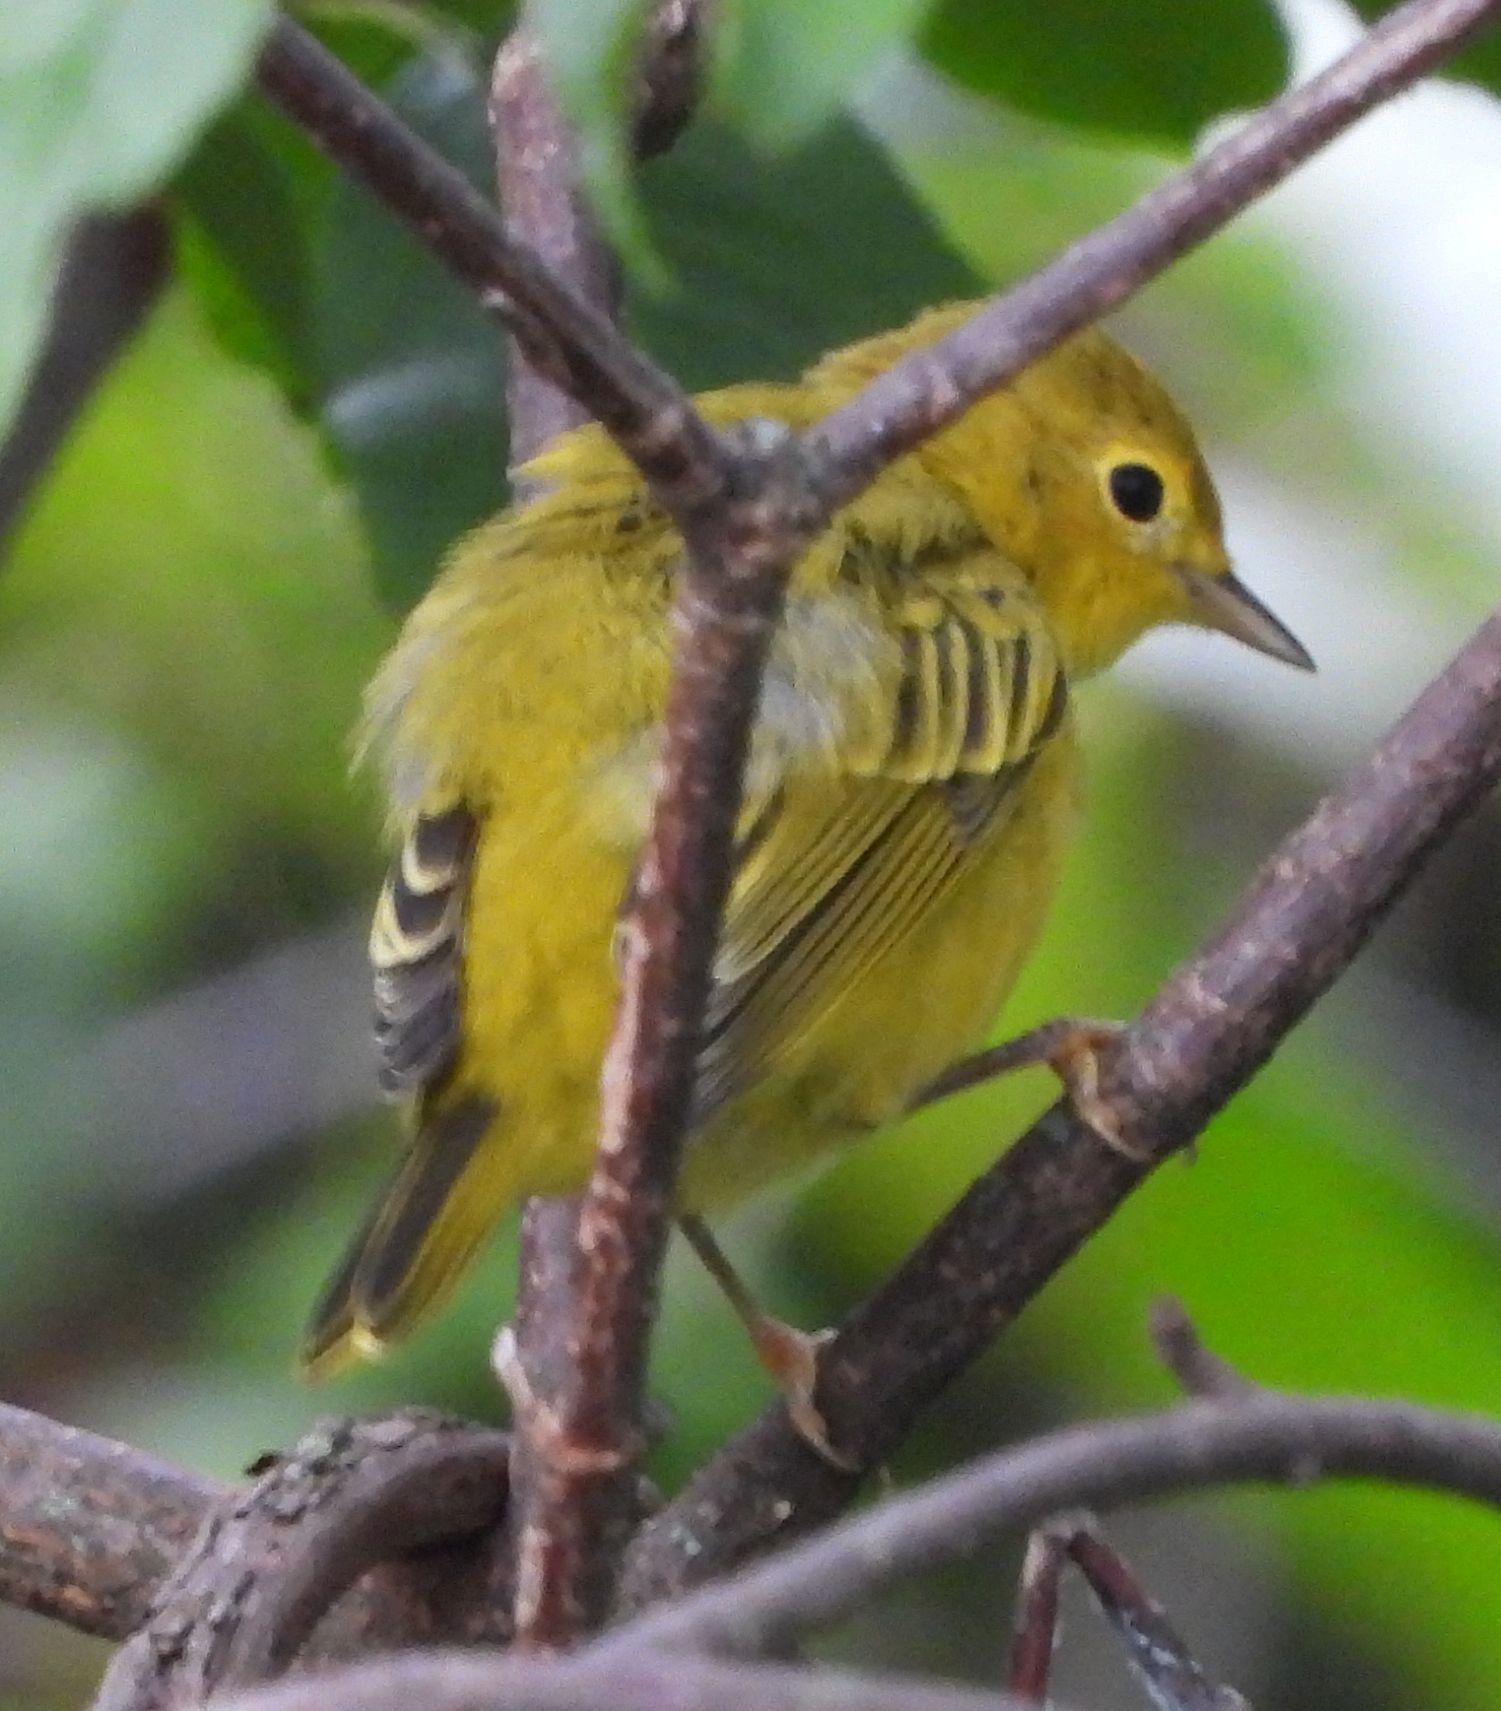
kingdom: Animalia
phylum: Chordata
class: Aves
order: Passeriformes
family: Parulidae
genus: Setophaga
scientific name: Setophaga petechia
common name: Yellow warbler
